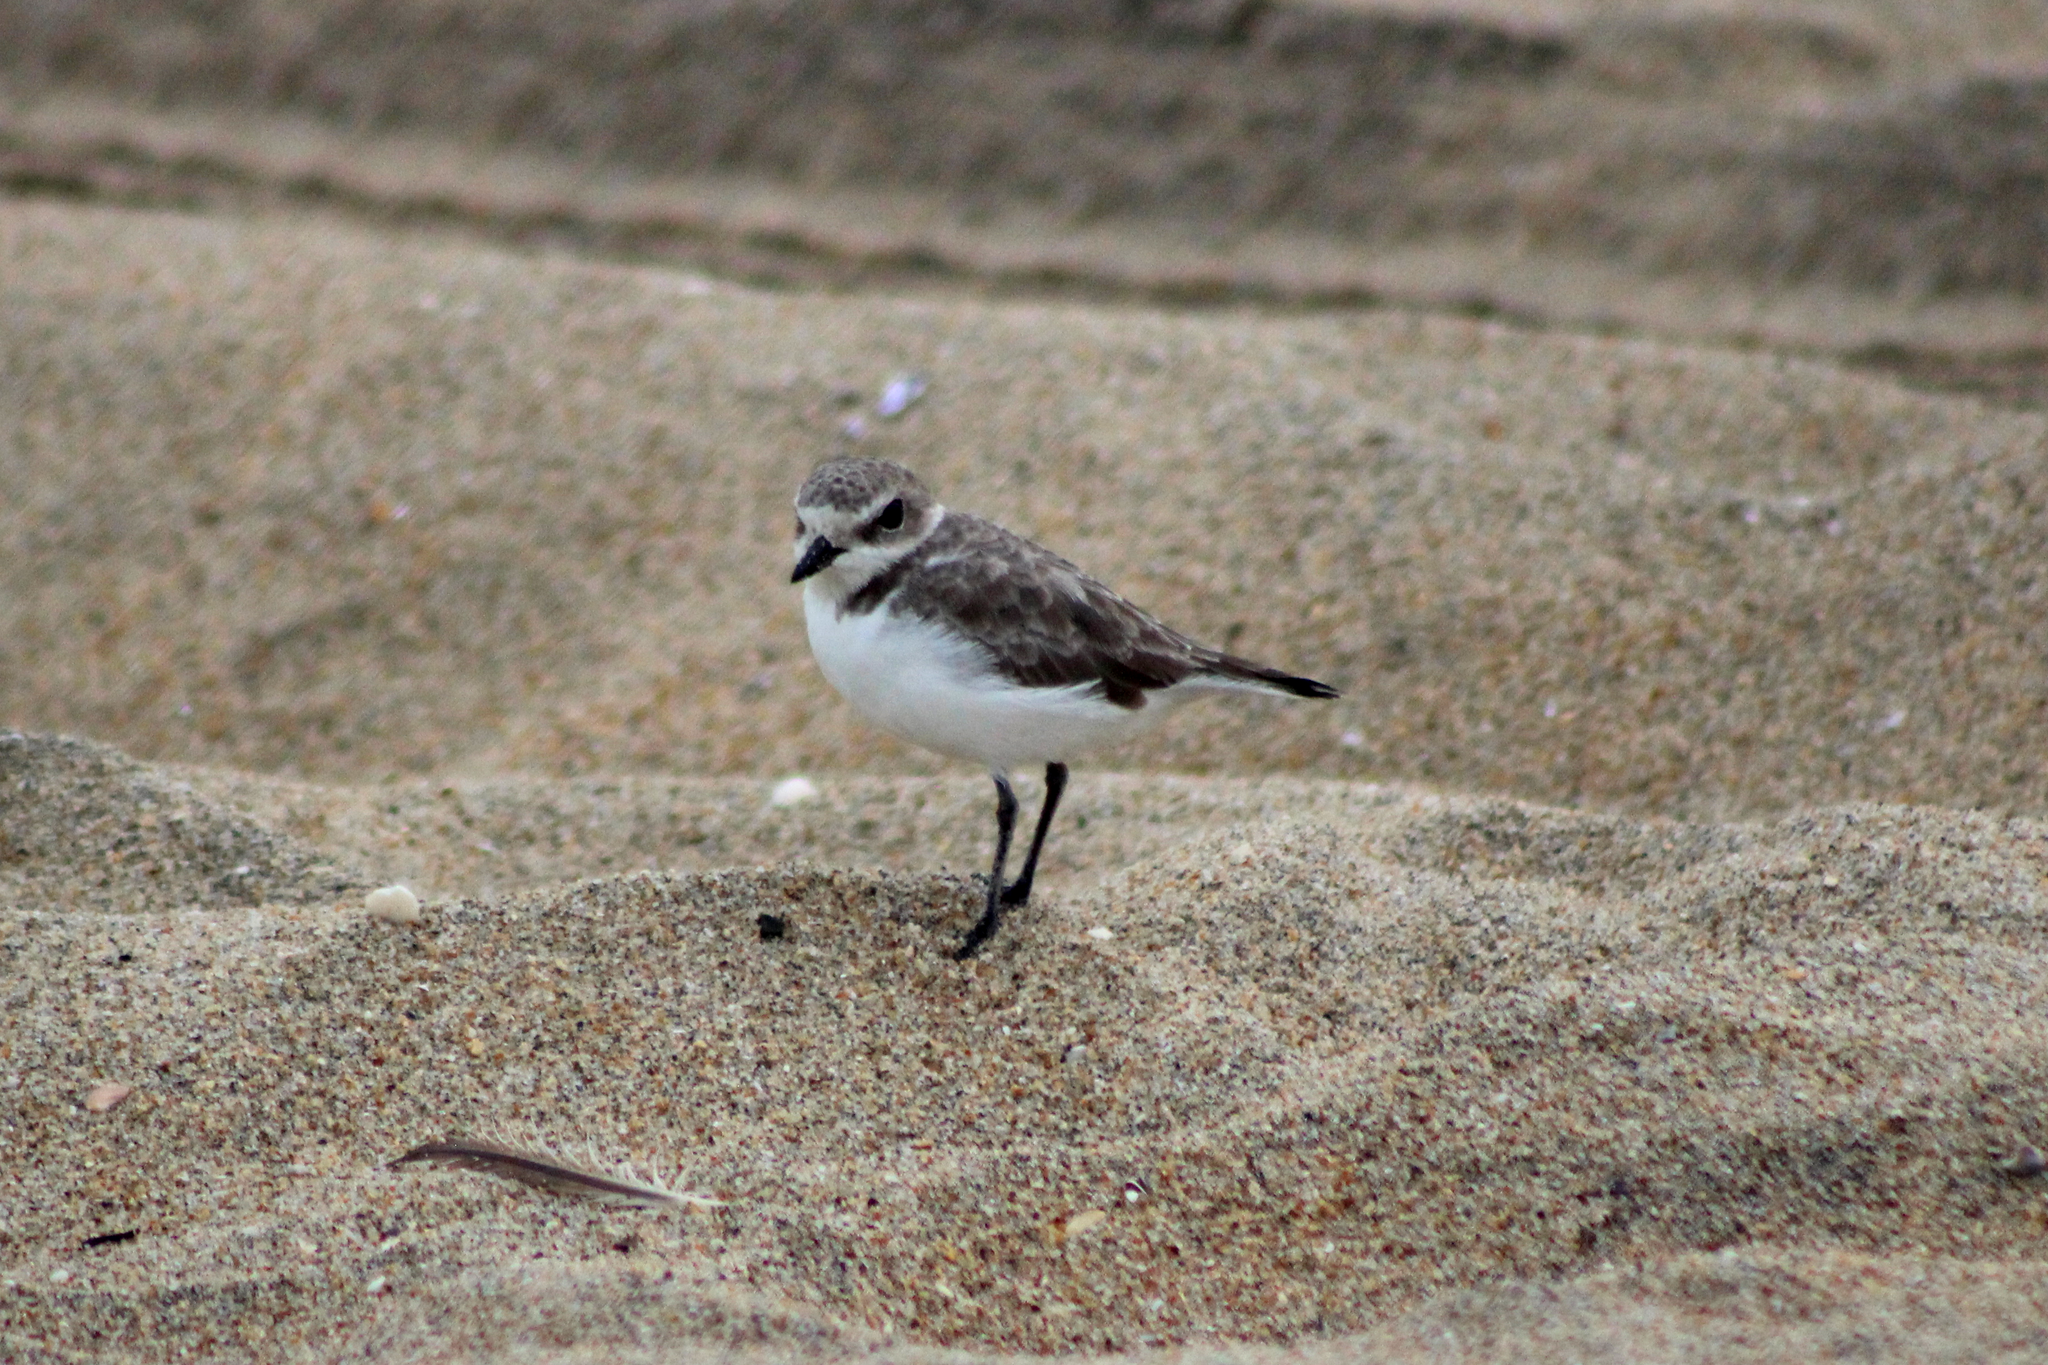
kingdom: Animalia
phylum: Chordata
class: Aves
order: Charadriiformes
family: Charadriidae
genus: Anarhynchus
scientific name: Anarhynchus
